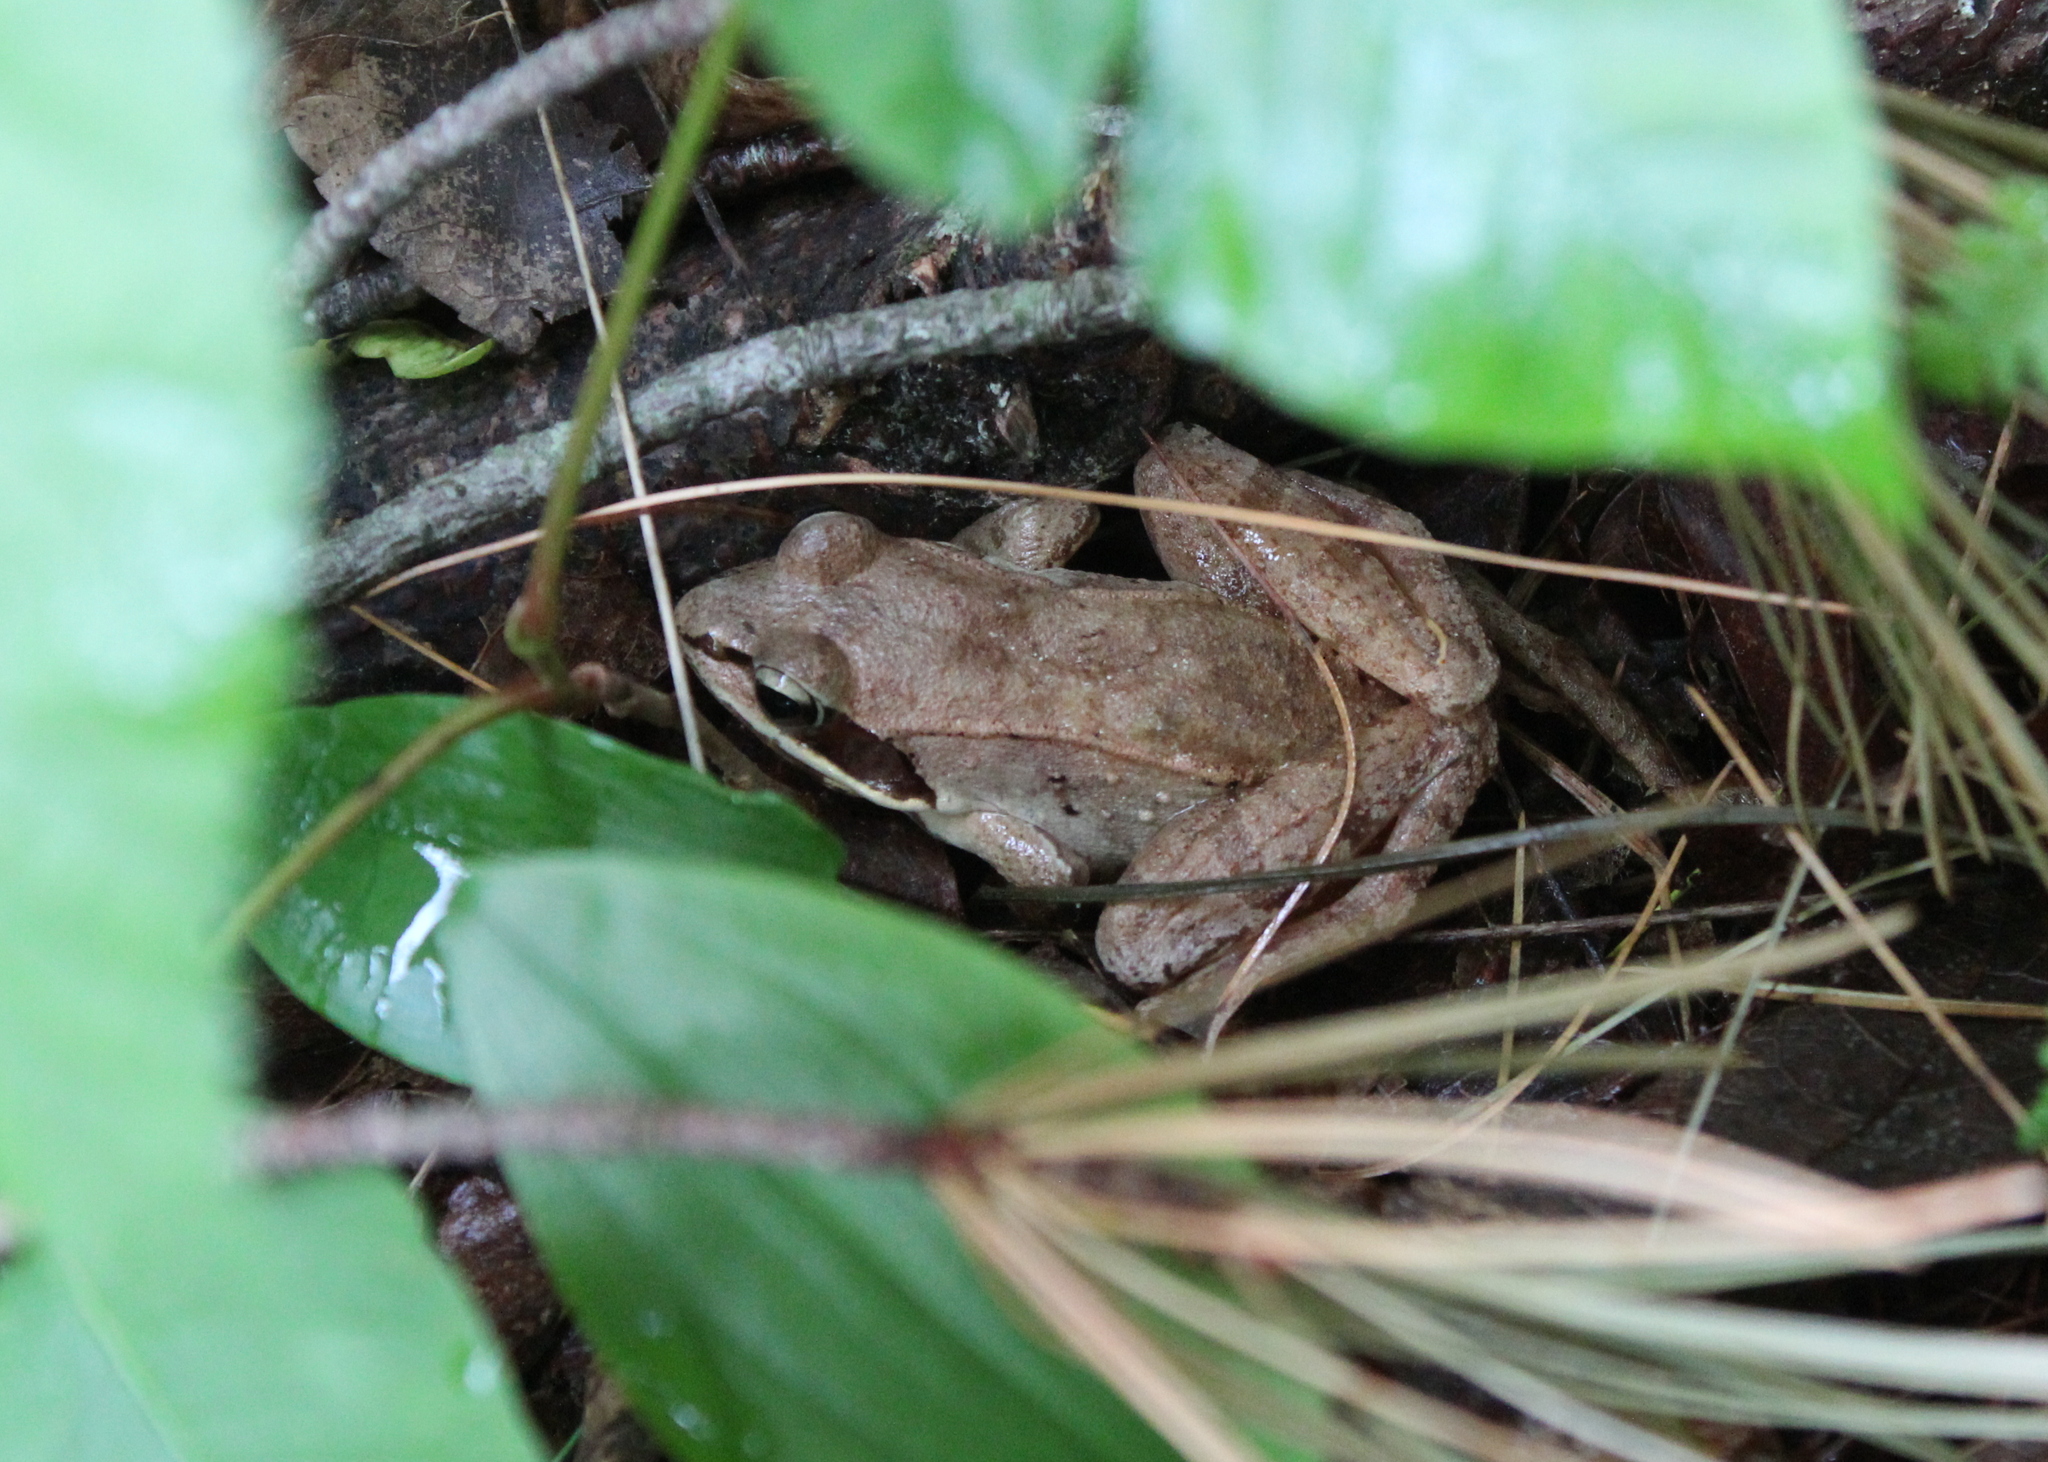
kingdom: Animalia
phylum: Chordata
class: Amphibia
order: Anura
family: Ranidae
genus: Lithobates
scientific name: Lithobates sylvaticus
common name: Wood frog
